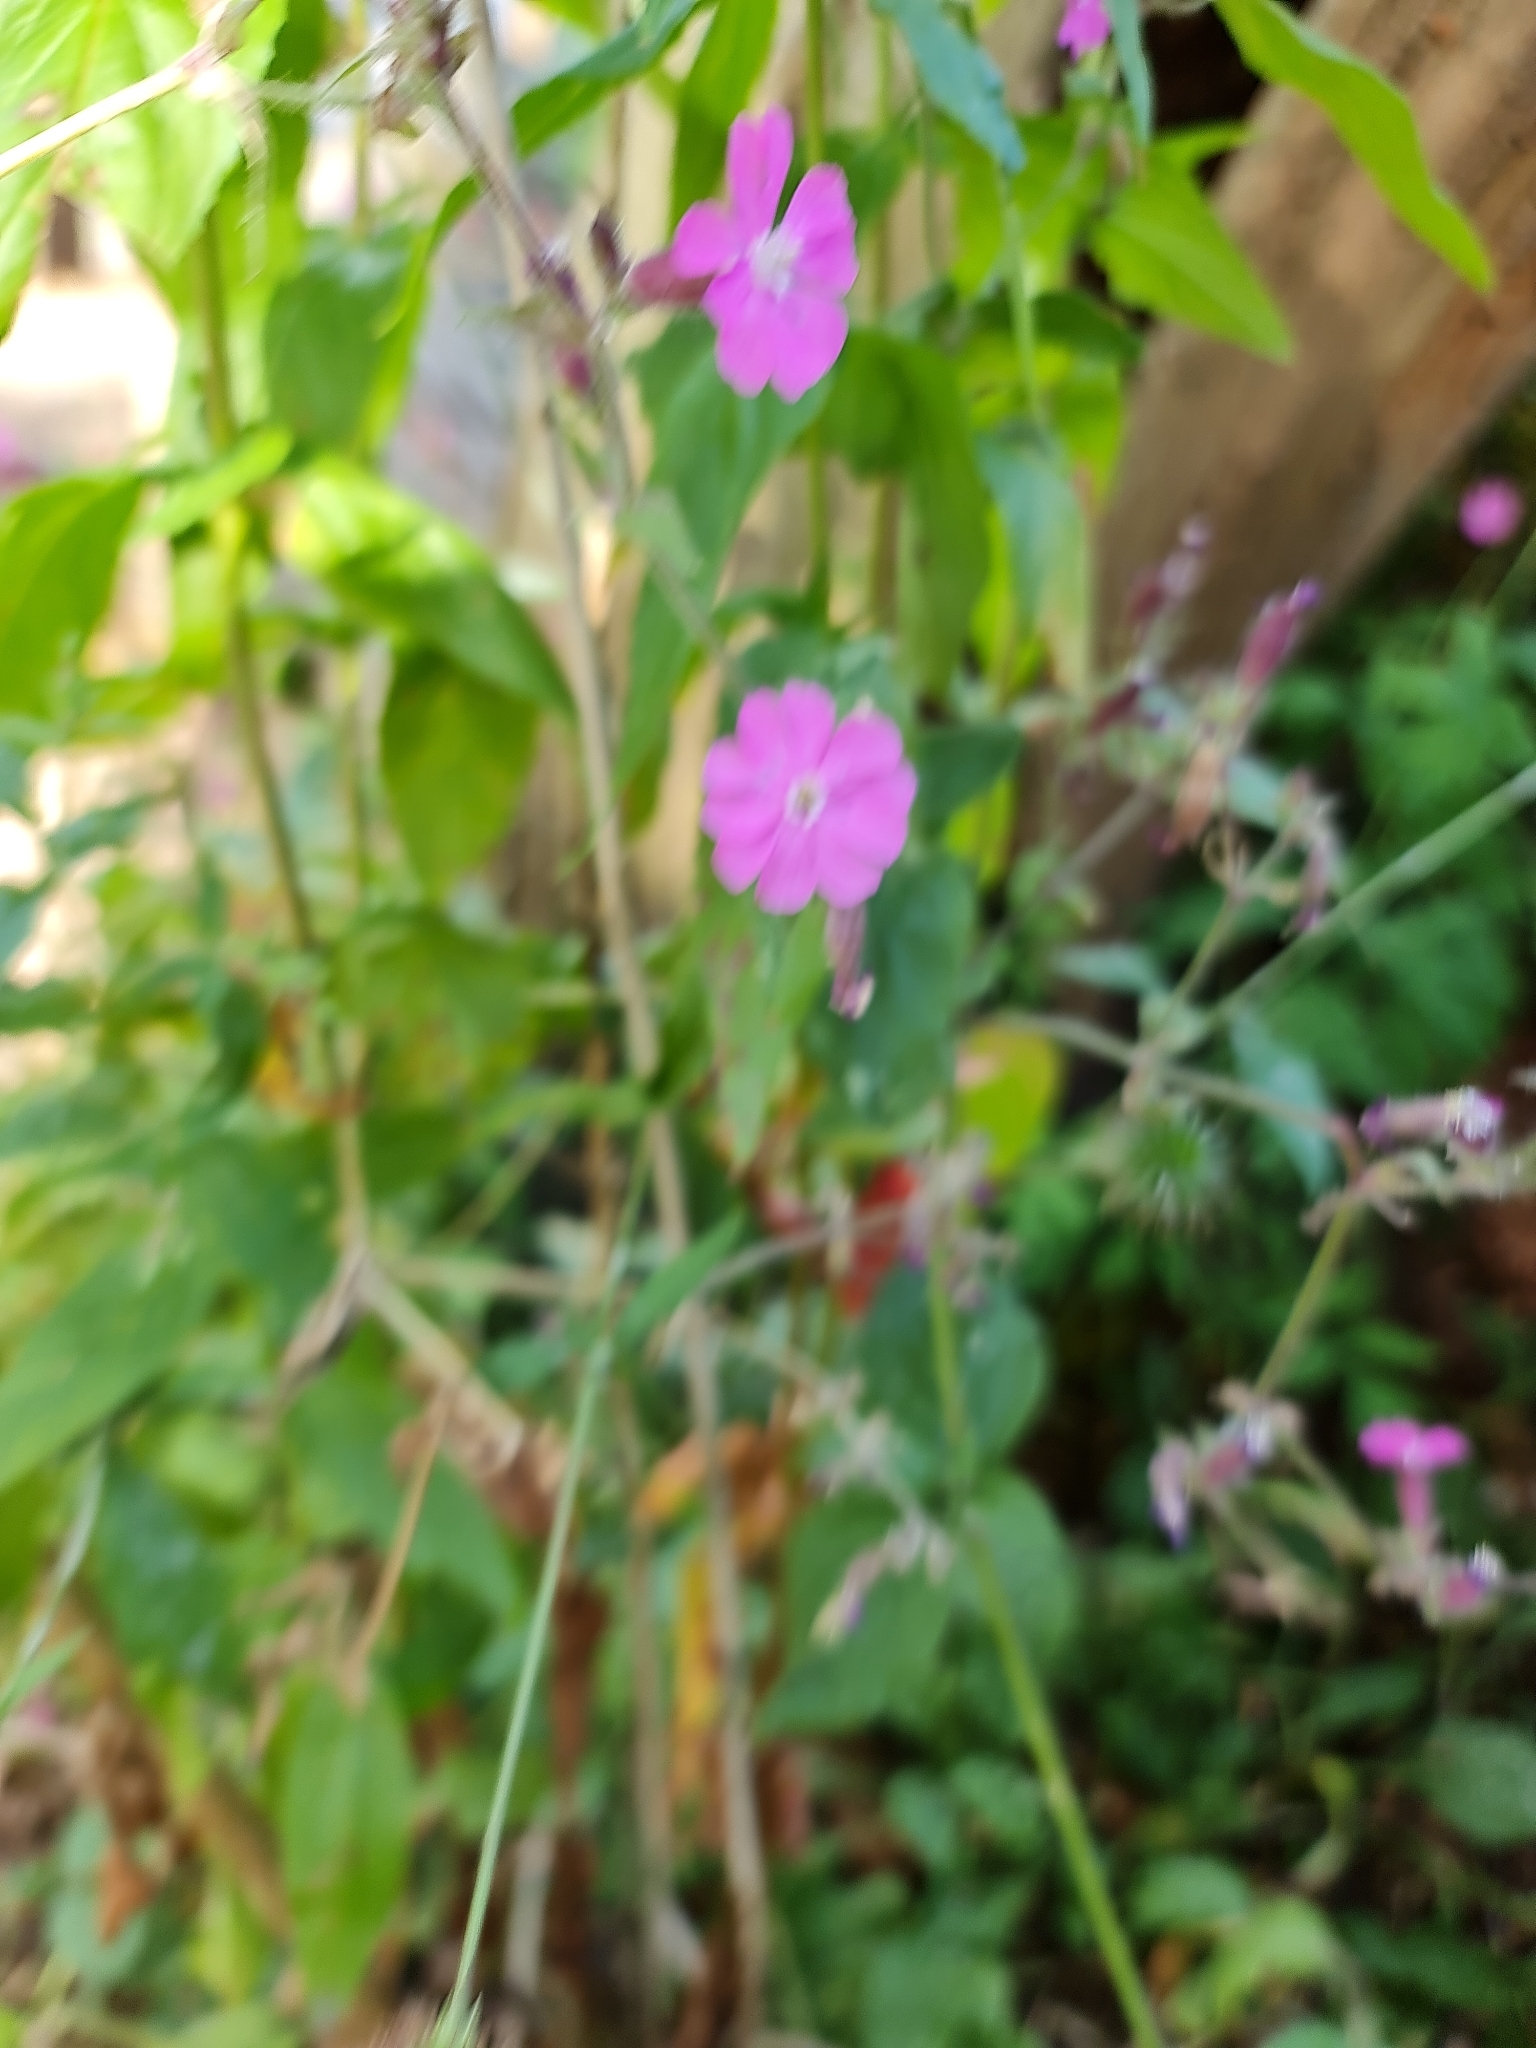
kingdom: Plantae
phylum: Tracheophyta
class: Magnoliopsida
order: Caryophyllales
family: Caryophyllaceae
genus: Silene
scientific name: Silene dioica
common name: Red campion
